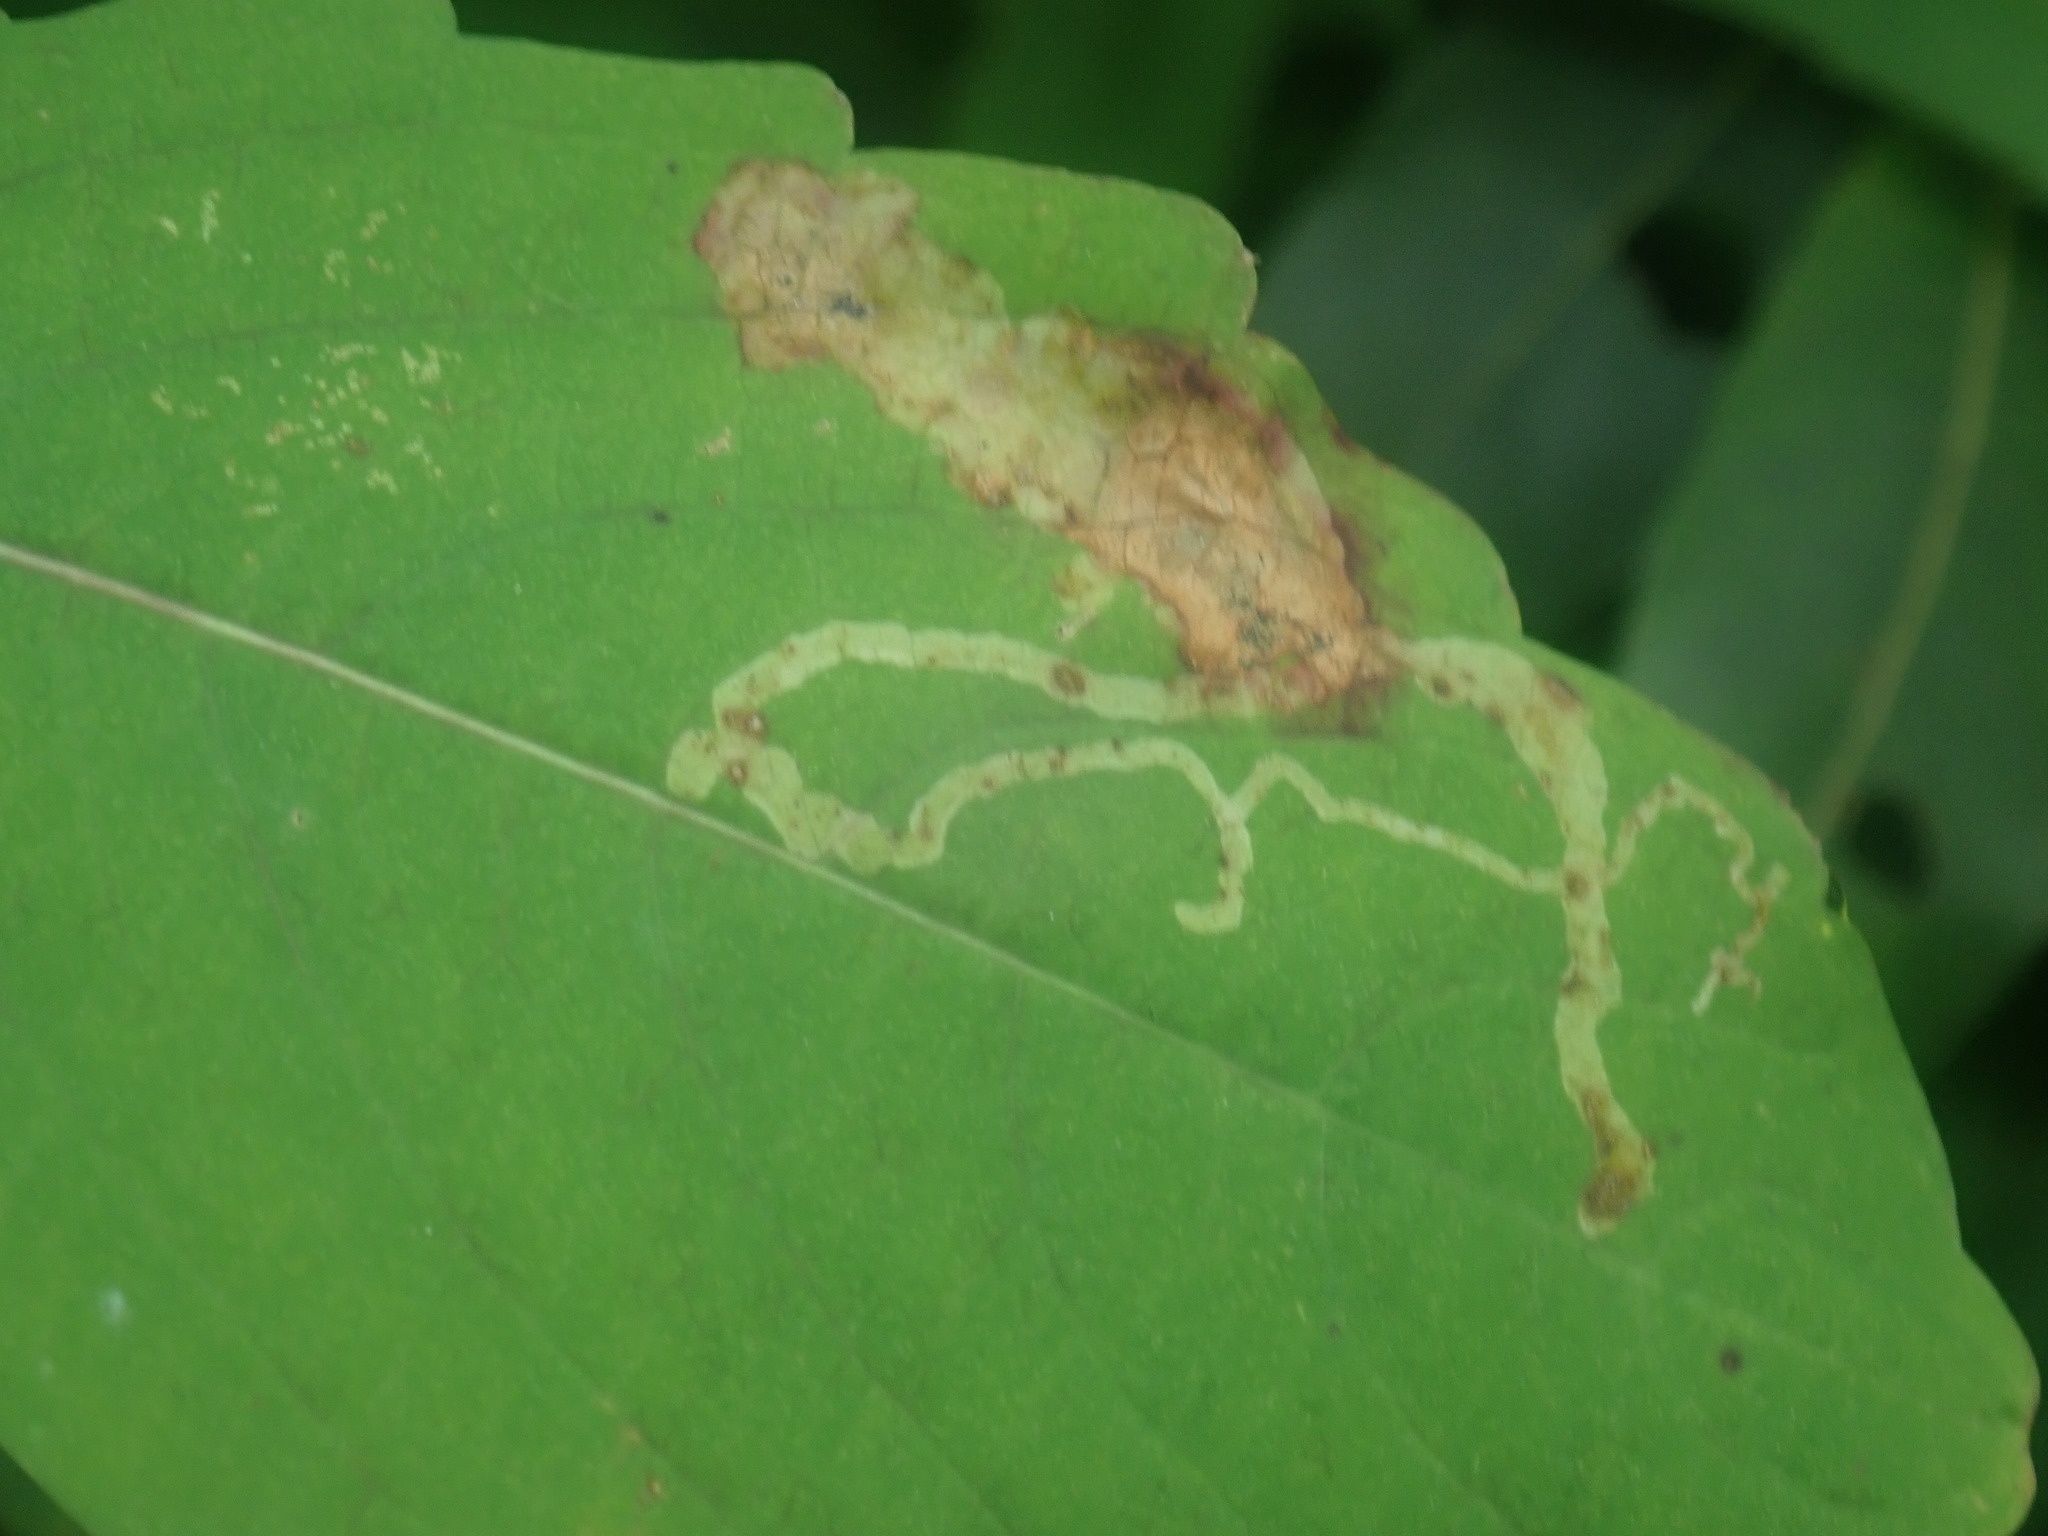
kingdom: Animalia
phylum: Arthropoda
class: Insecta
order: Diptera
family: Agromyzidae
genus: Phytoliriomyza
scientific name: Phytoliriomyza melampyga
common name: Jewelweed leaf-miner fly
